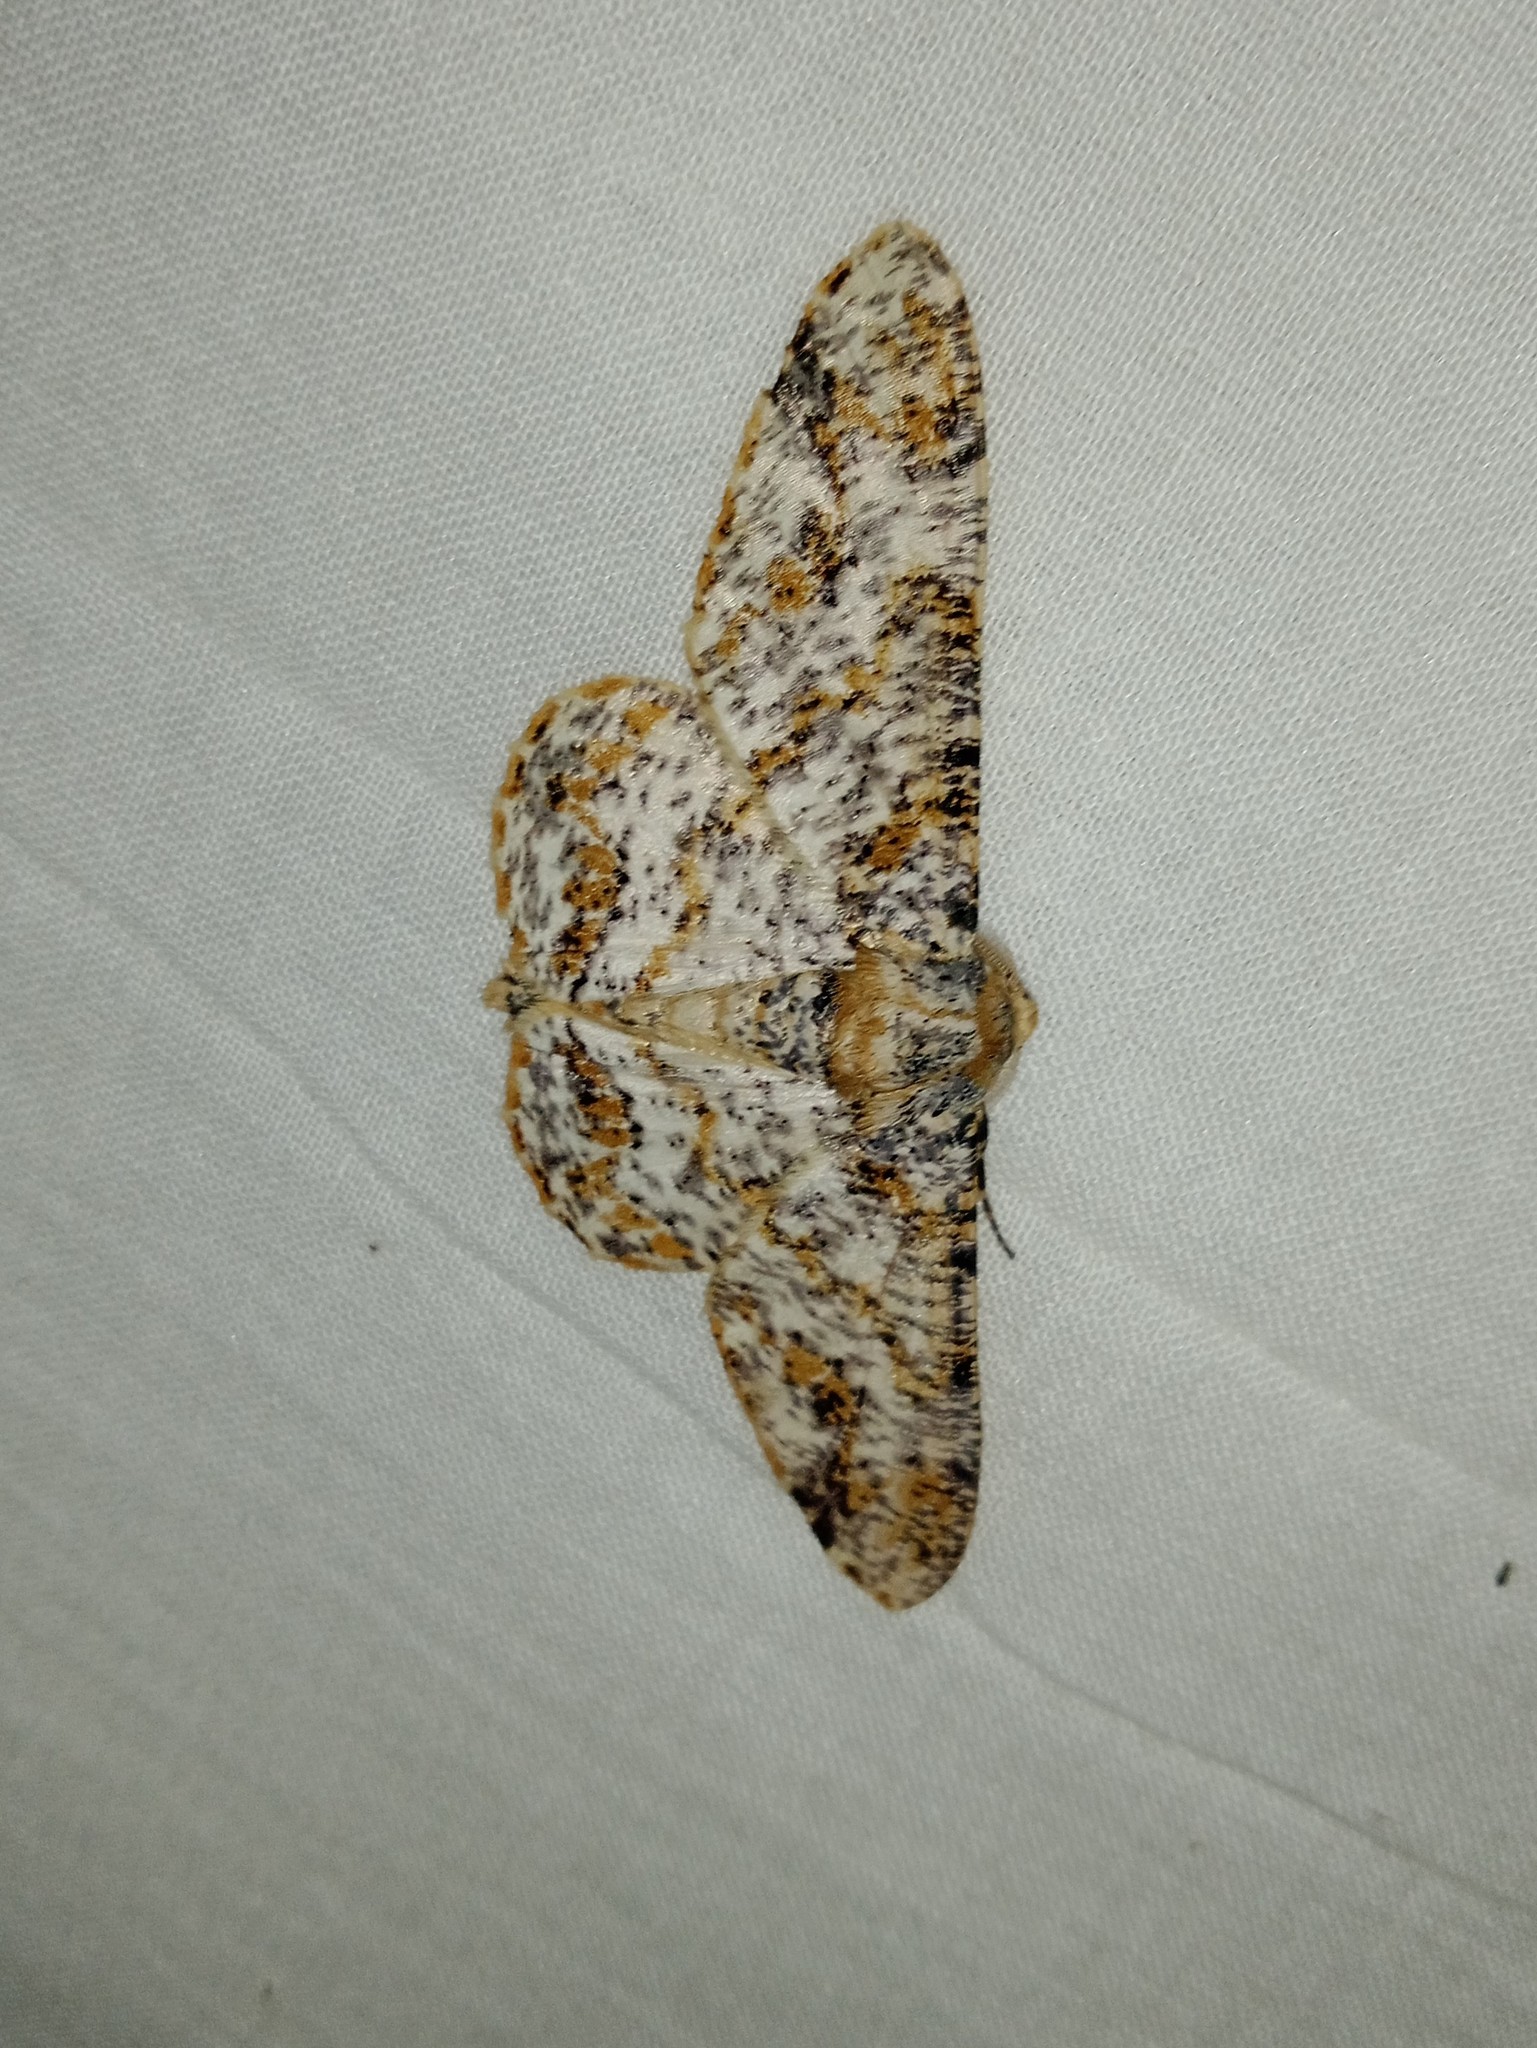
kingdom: Animalia
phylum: Arthropoda
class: Insecta
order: Lepidoptera
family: Geometridae
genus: Biston
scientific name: Biston suppressaria
